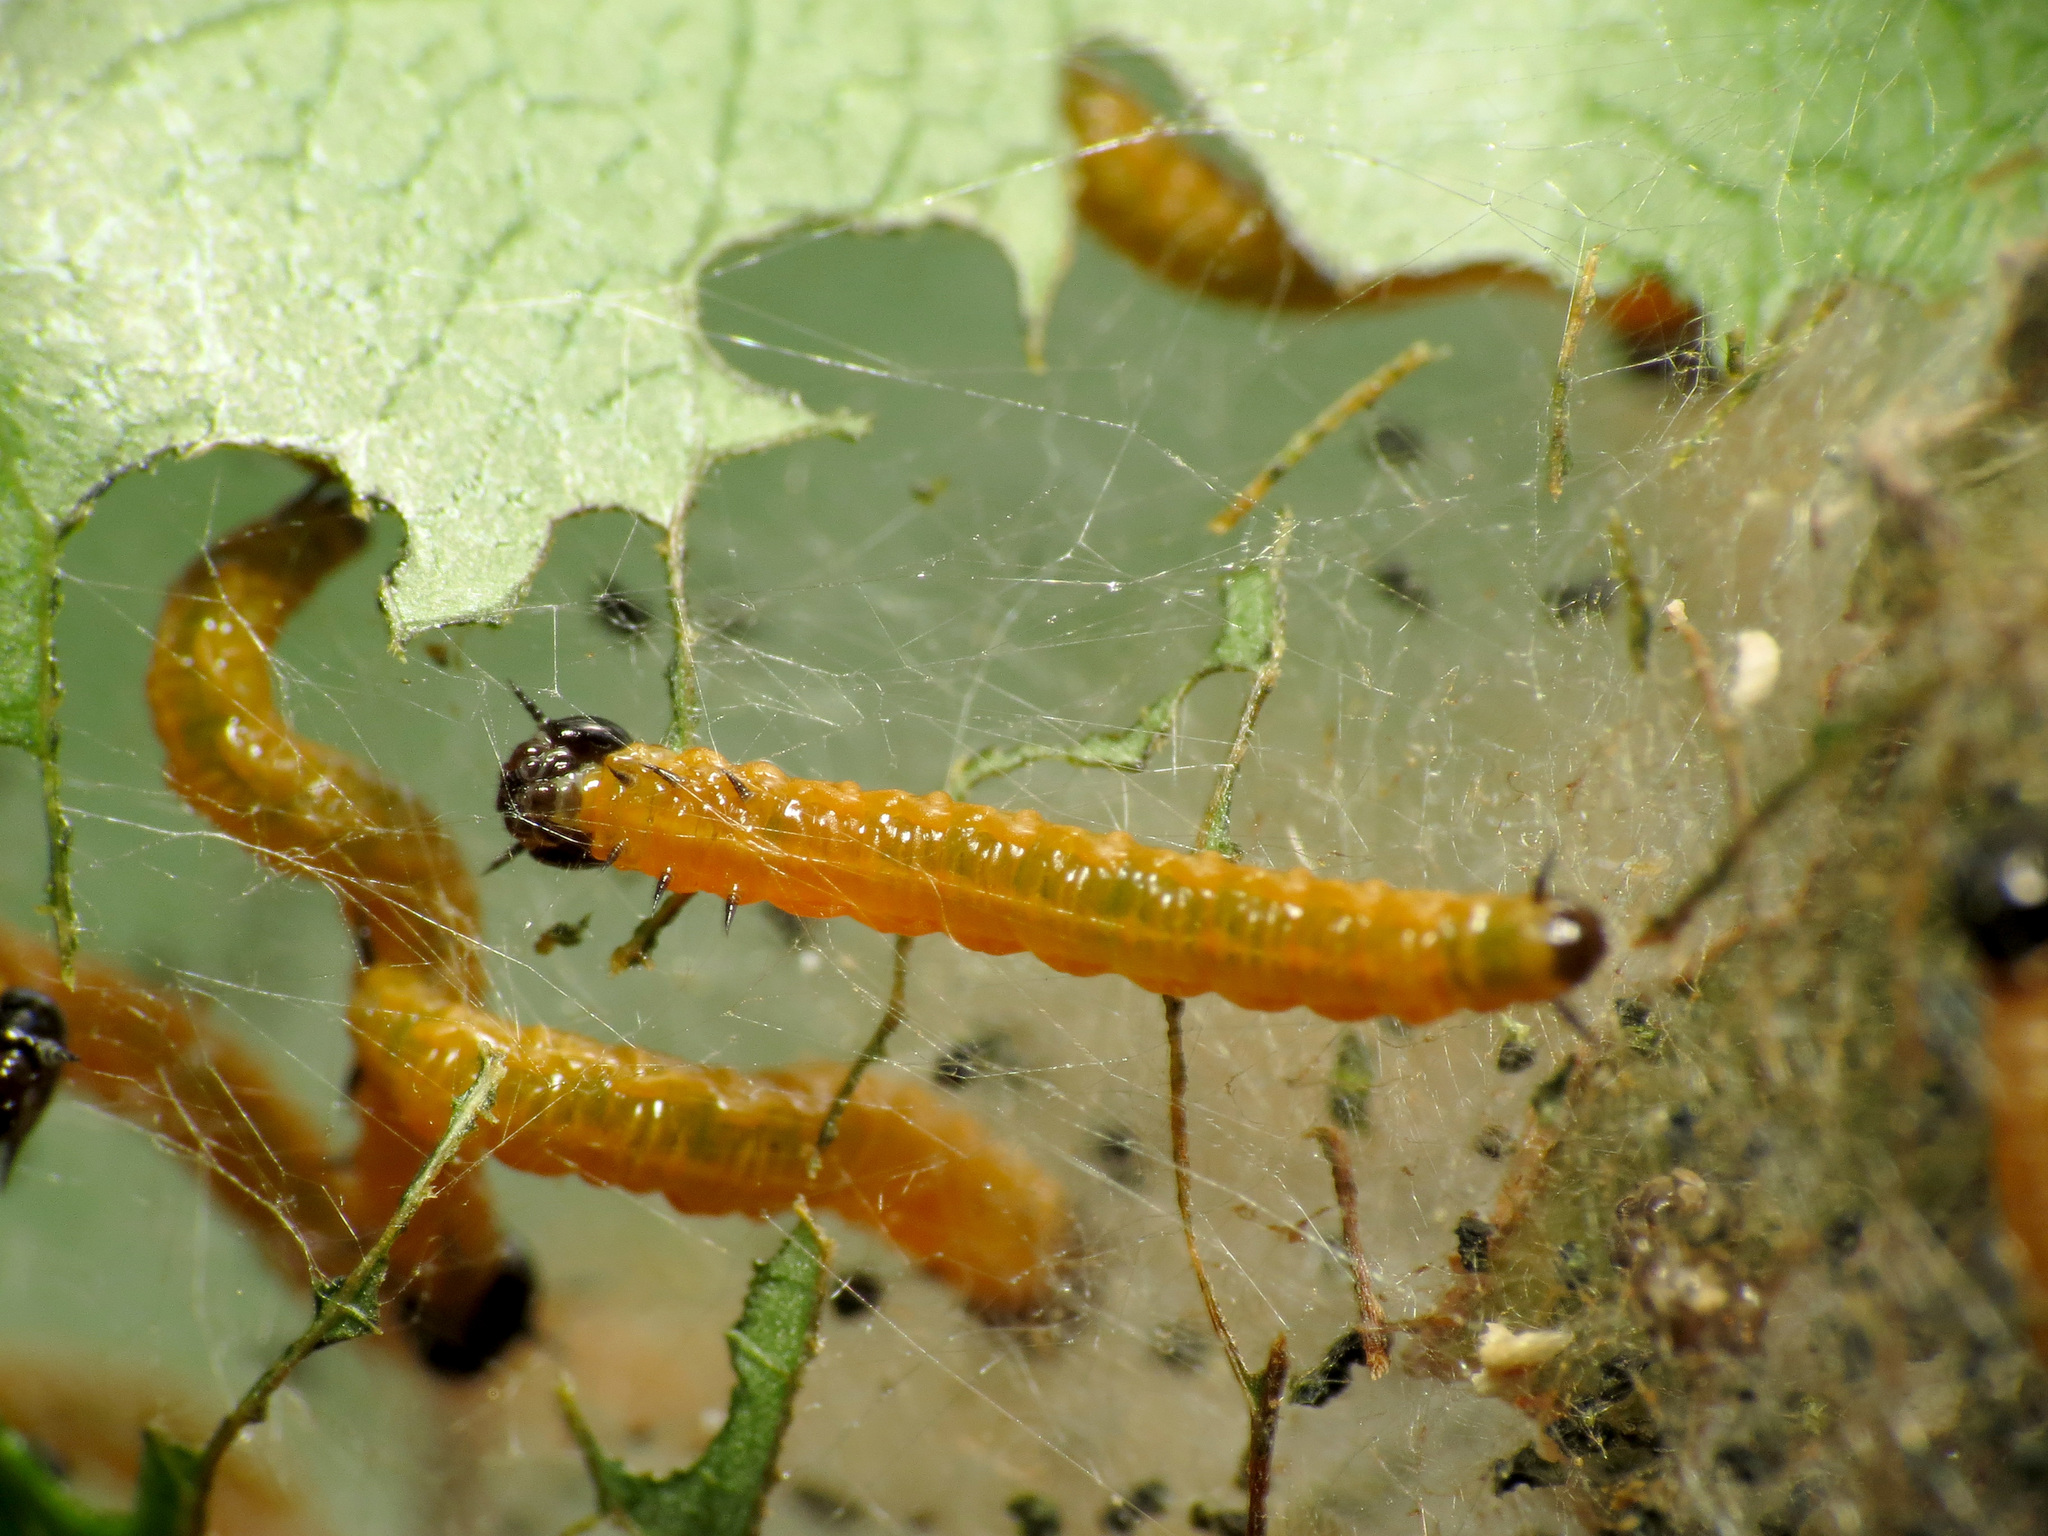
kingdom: Animalia
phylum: Arthropoda
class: Insecta
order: Hymenoptera
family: Pamphiliidae
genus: Neurotoma
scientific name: Neurotoma edwardi
